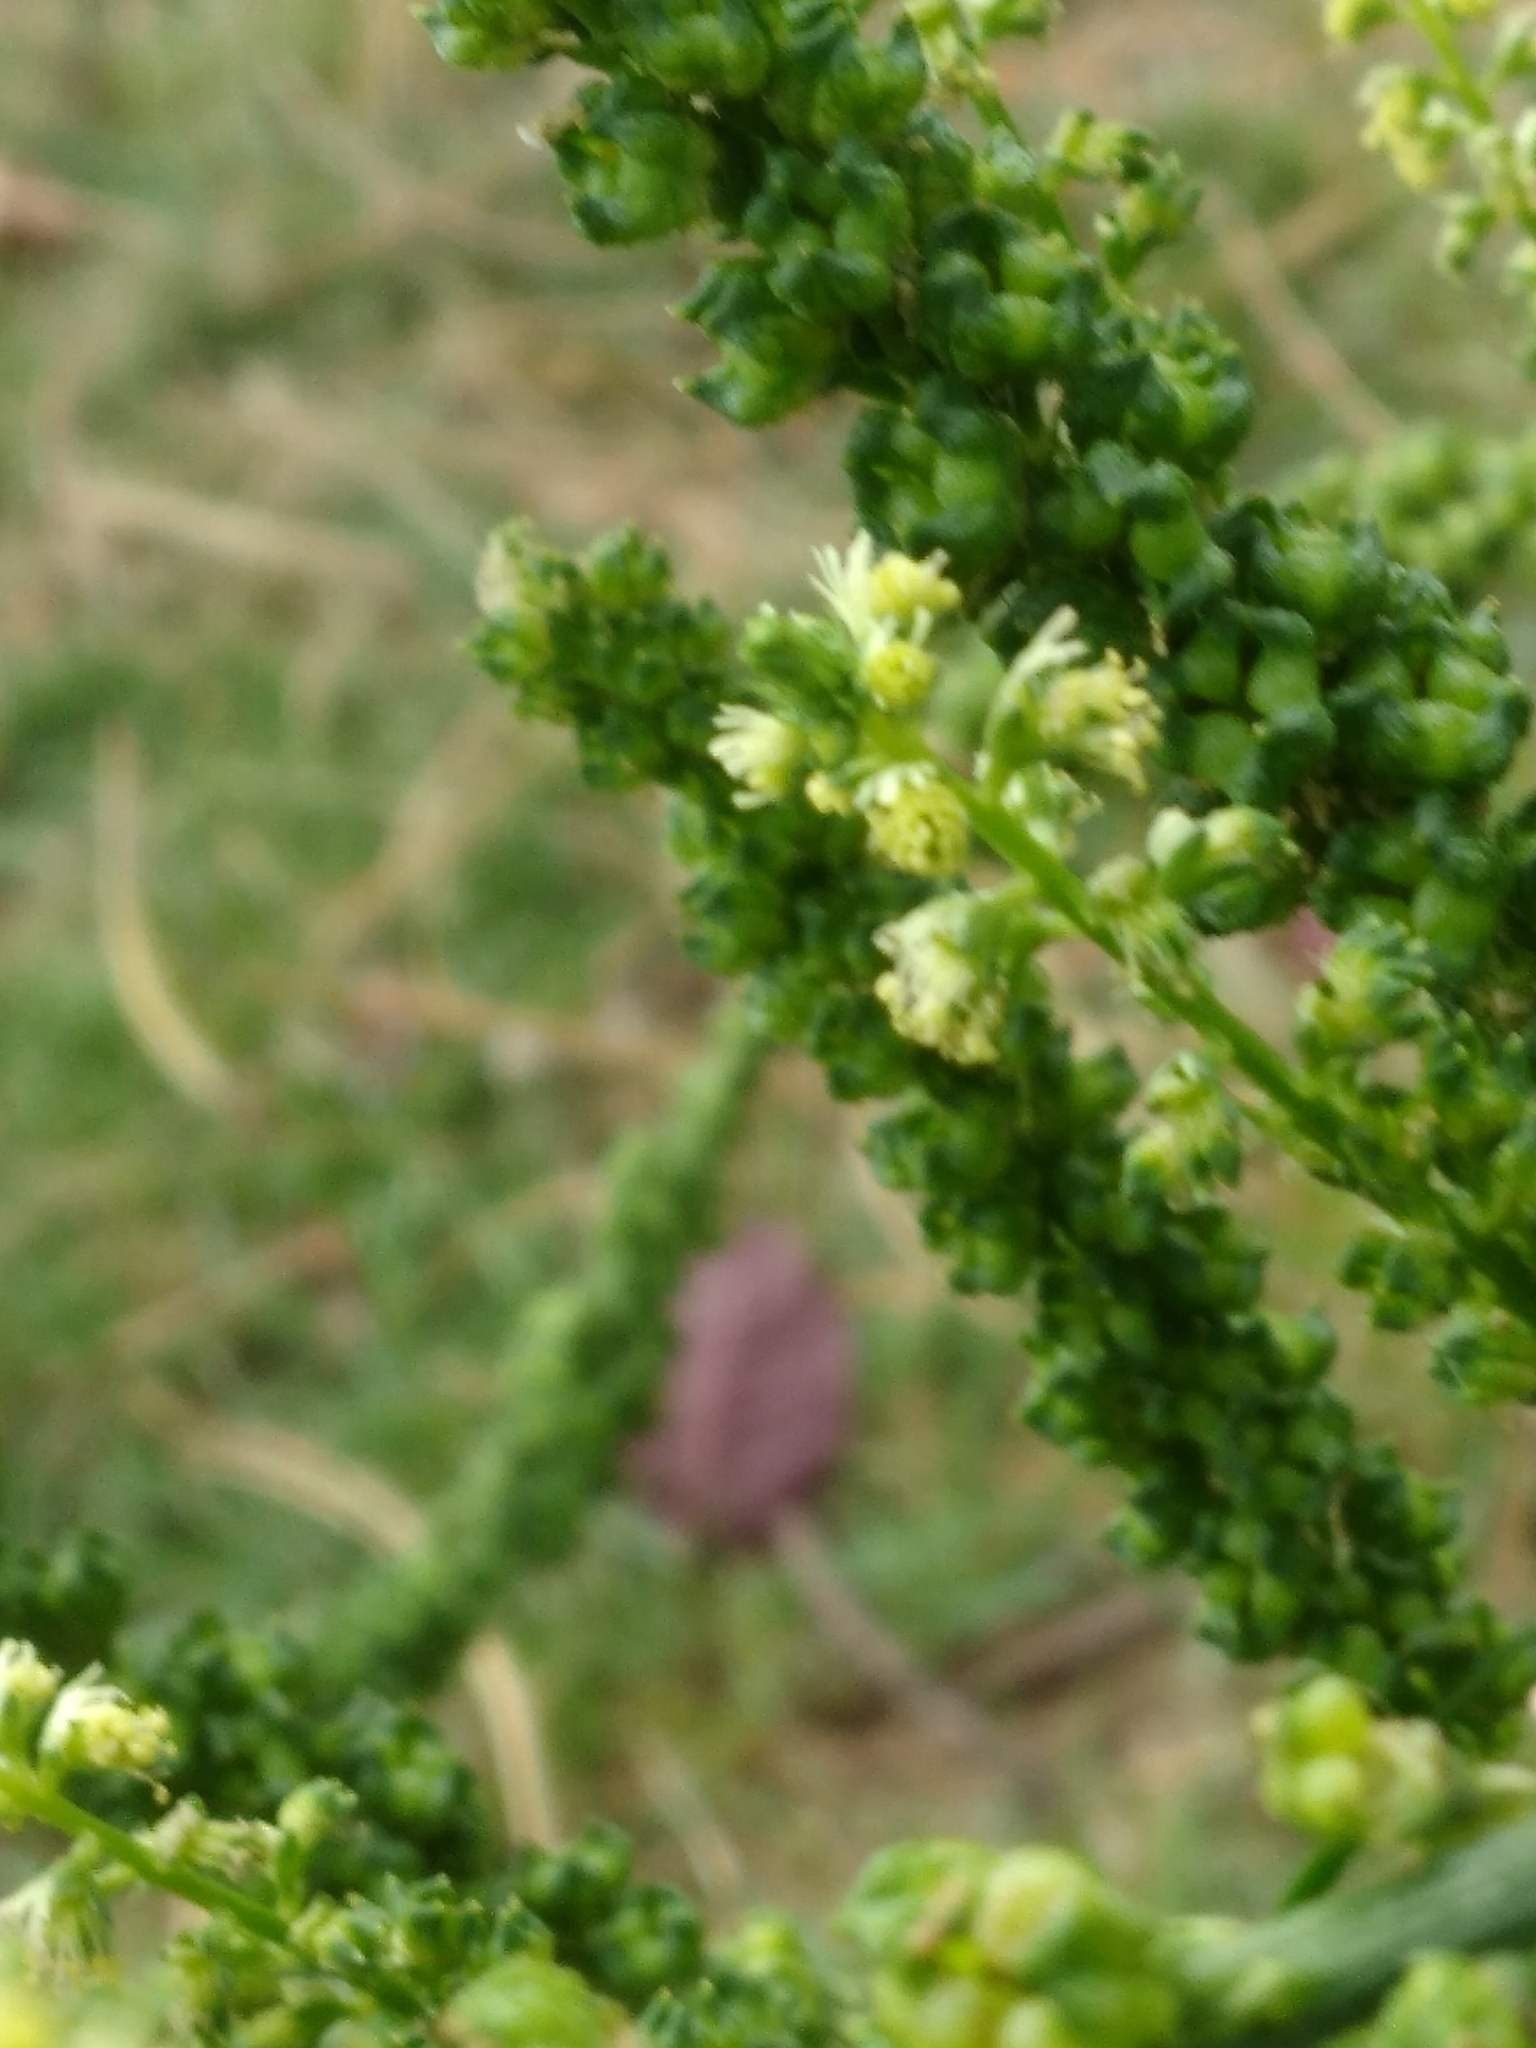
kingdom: Plantae
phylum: Tracheophyta
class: Magnoliopsida
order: Brassicales
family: Resedaceae
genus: Reseda
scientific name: Reseda luteola
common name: Weld
